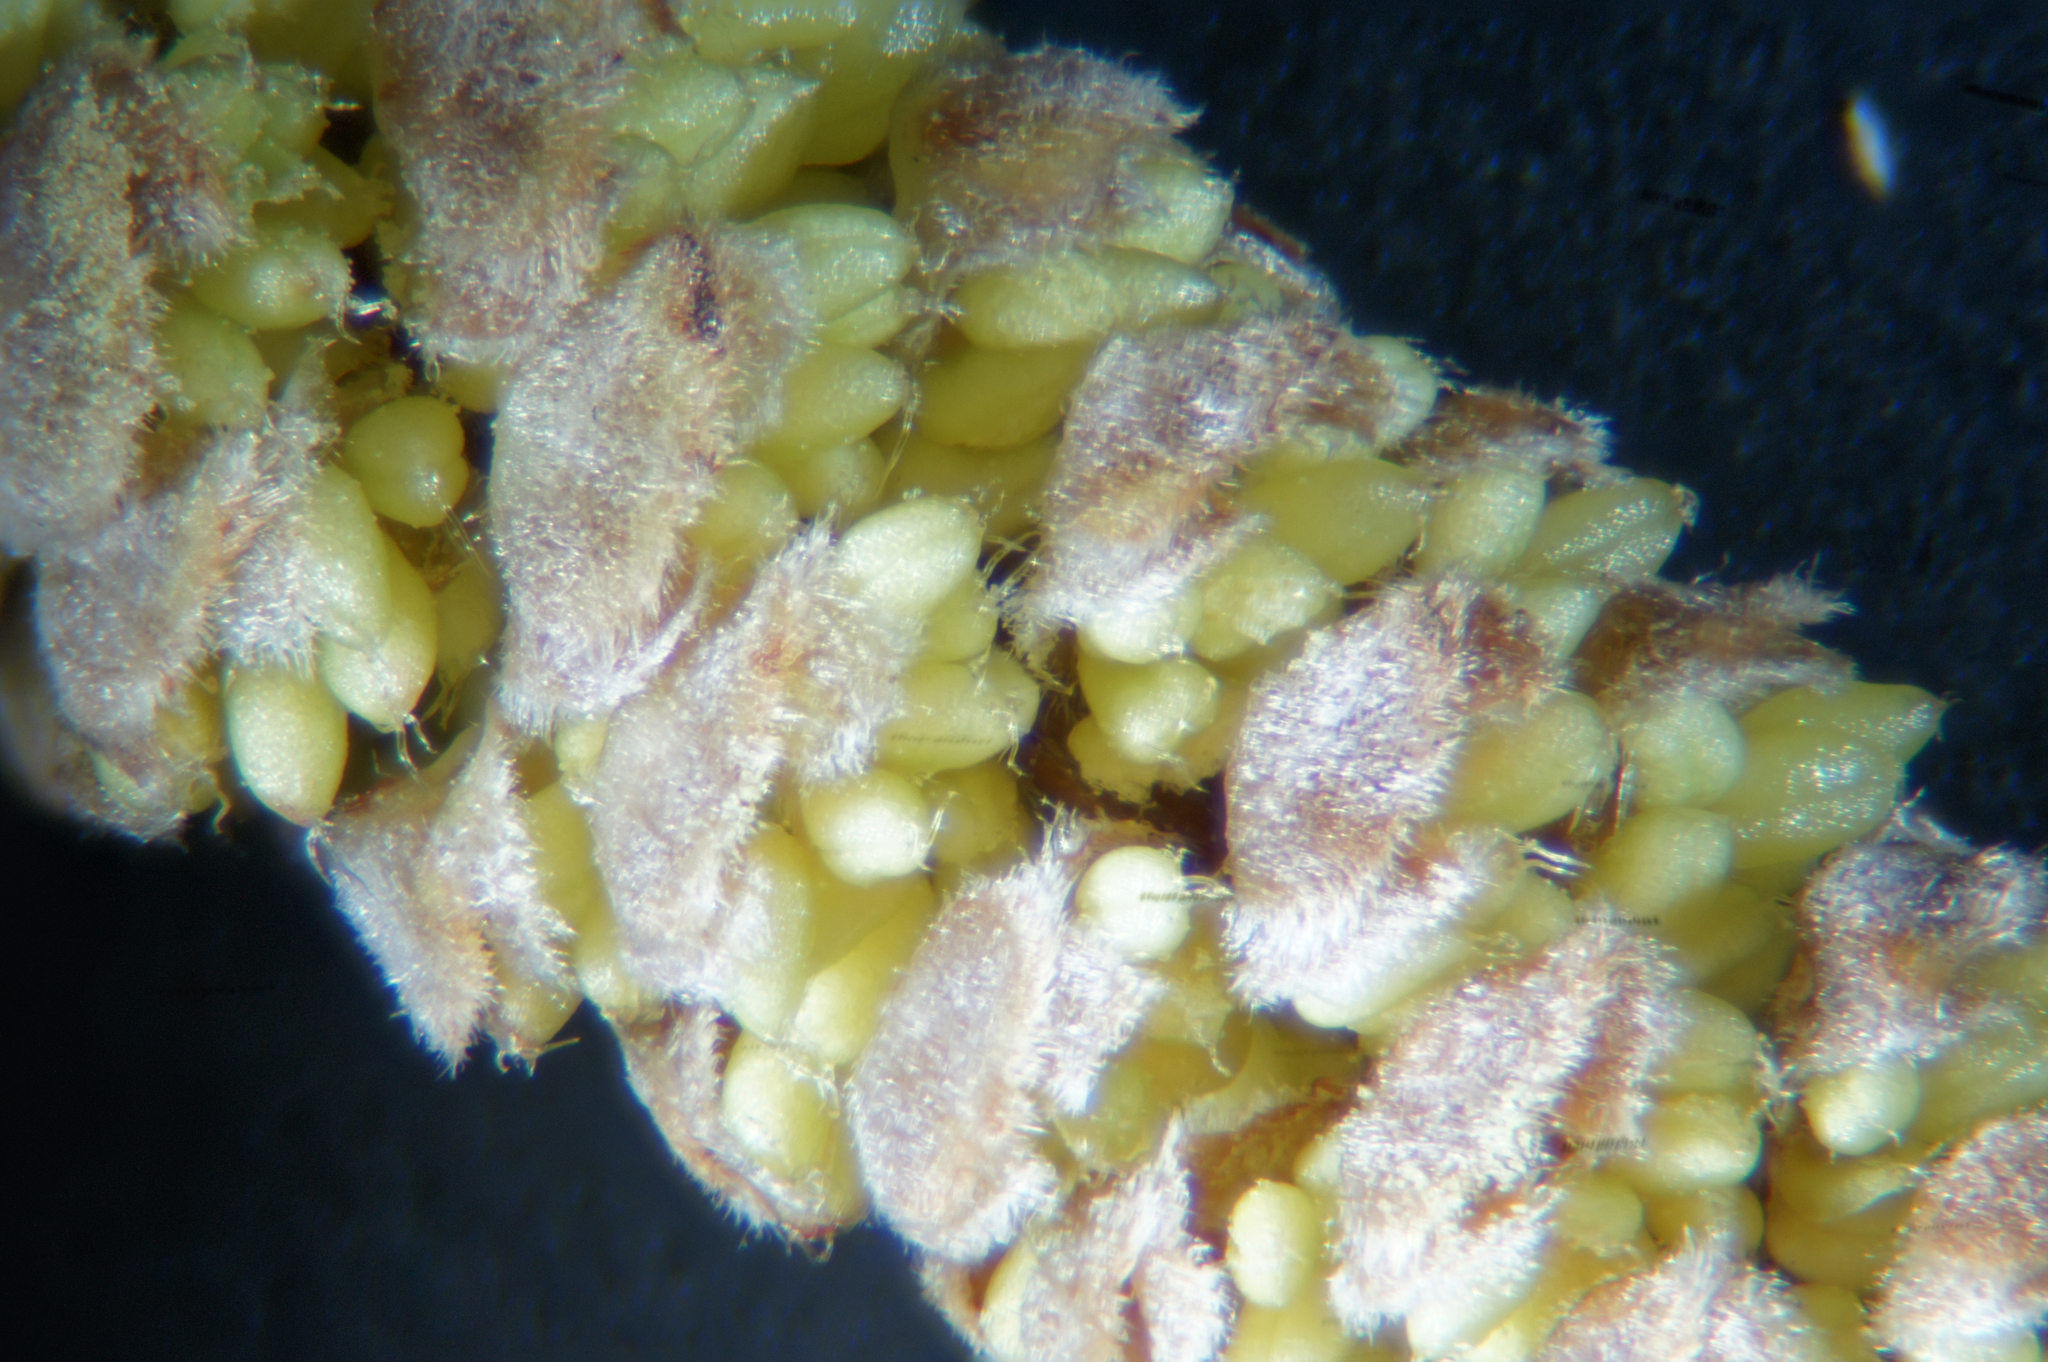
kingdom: Plantae
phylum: Tracheophyta
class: Magnoliopsida
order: Fagales
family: Betulaceae
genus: Corylus
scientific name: Corylus avellana
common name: European hazel
